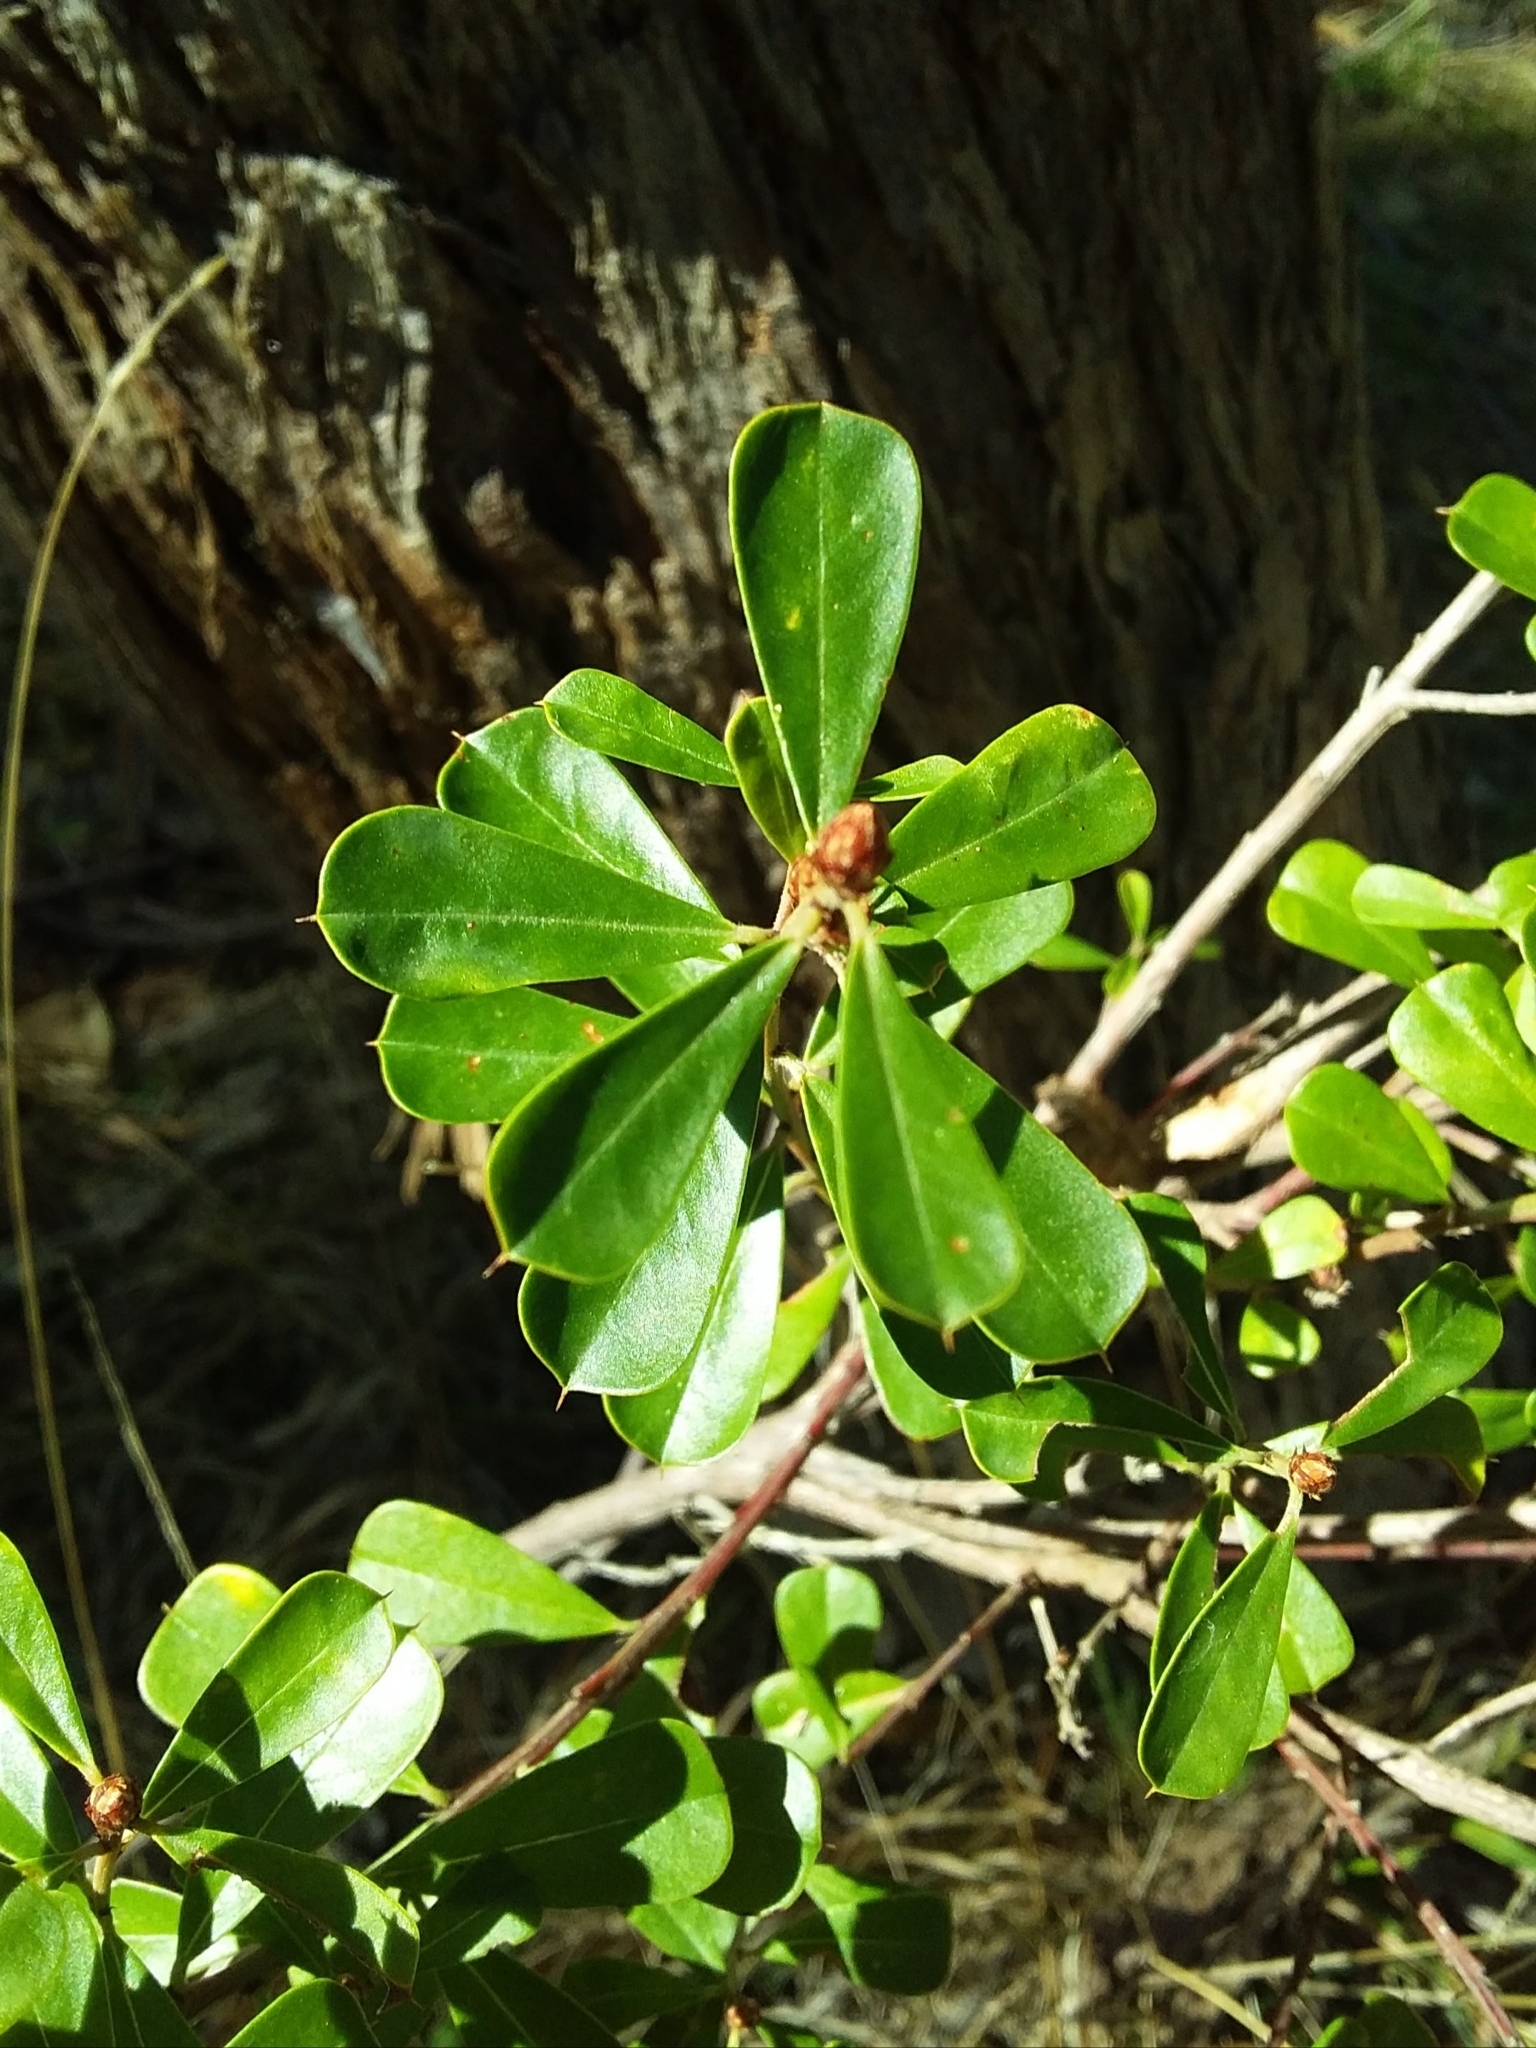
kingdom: Plantae
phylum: Tracheophyta
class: Magnoliopsida
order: Fabales
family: Fabaceae
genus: Pultenaea
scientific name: Pultenaea daphnoides
